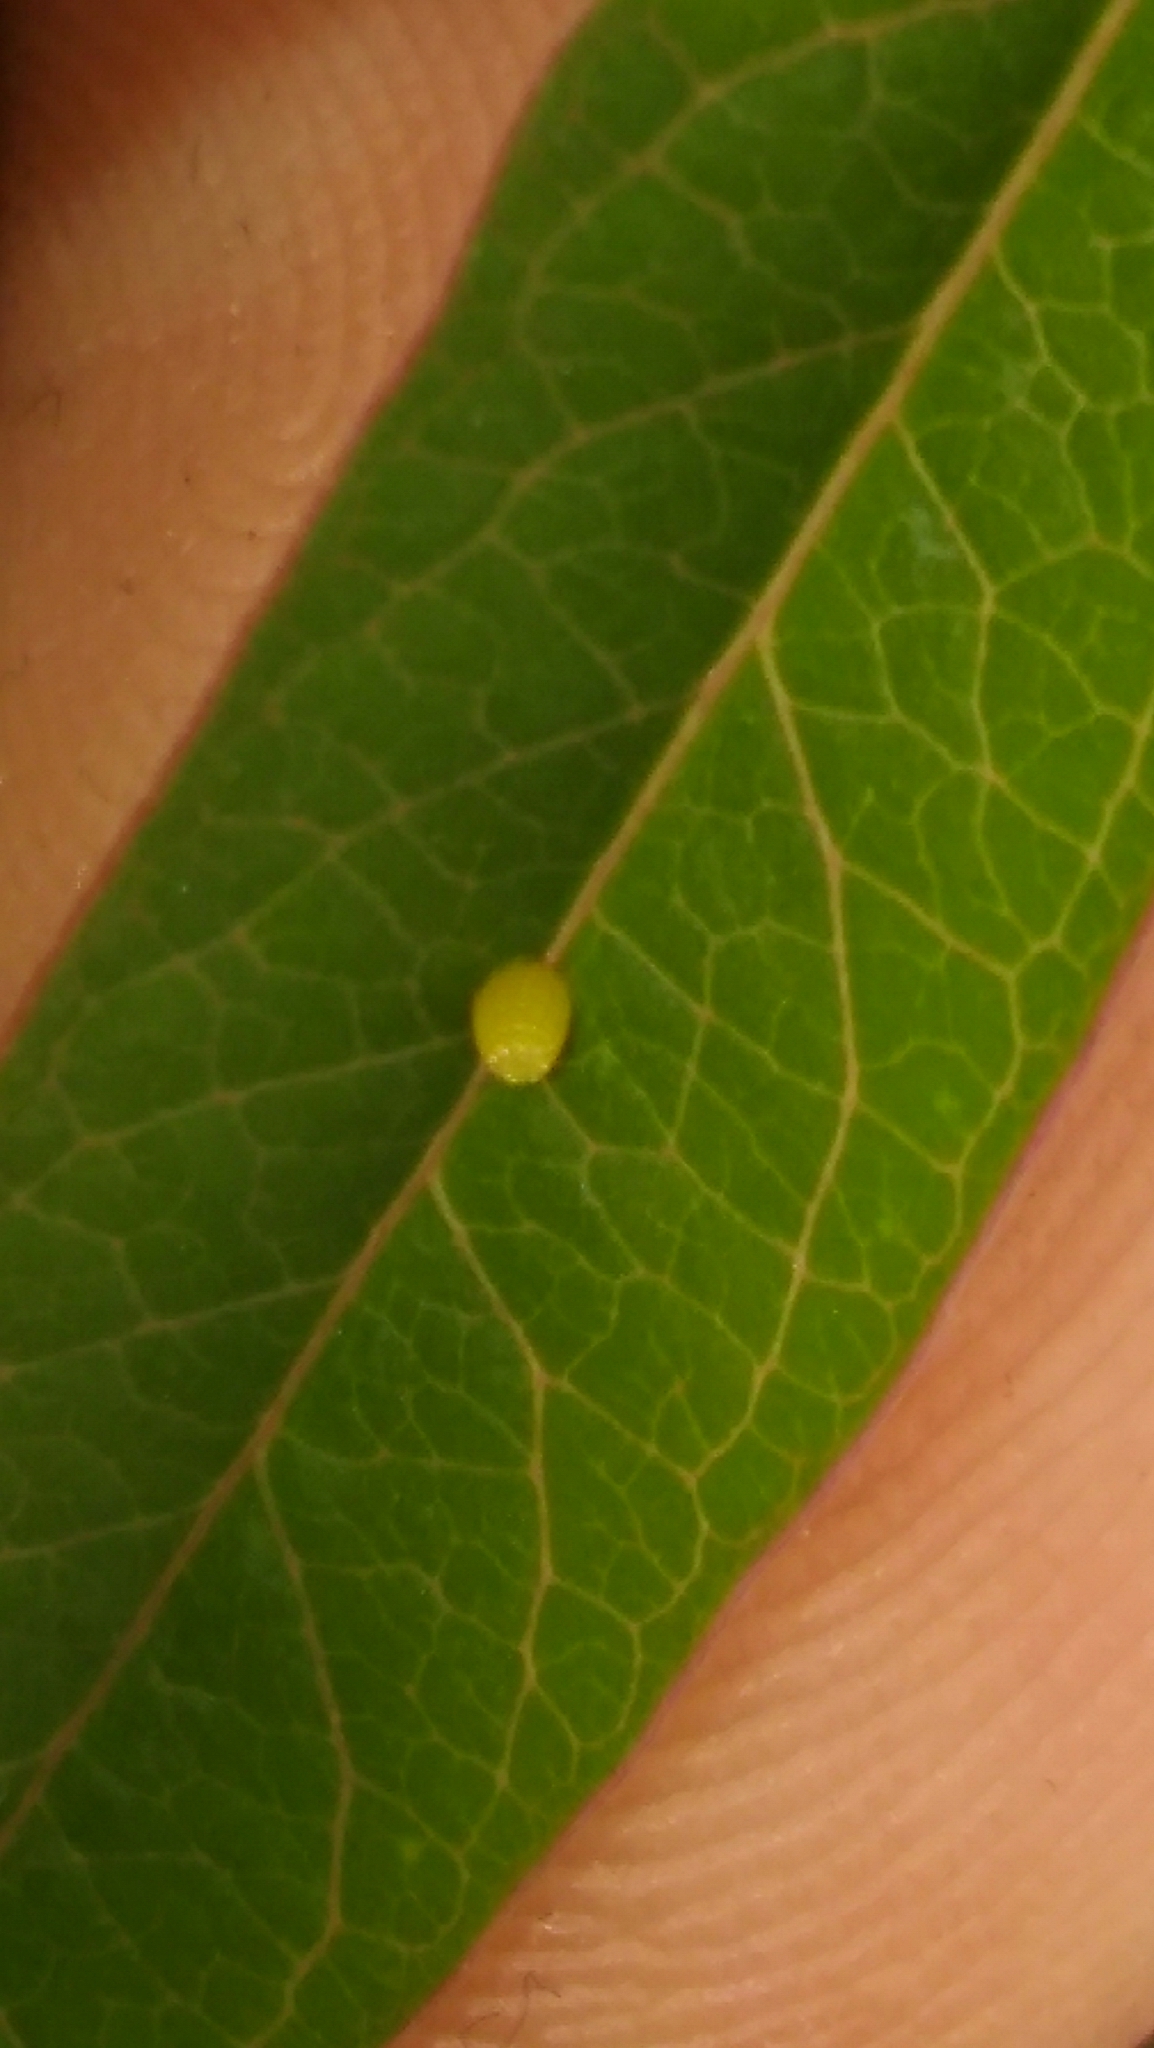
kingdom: Animalia
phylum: Arthropoda
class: Insecta
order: Lepidoptera
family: Nymphalidae
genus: Dione
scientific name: Dione vanillae
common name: Gulf fritillary
